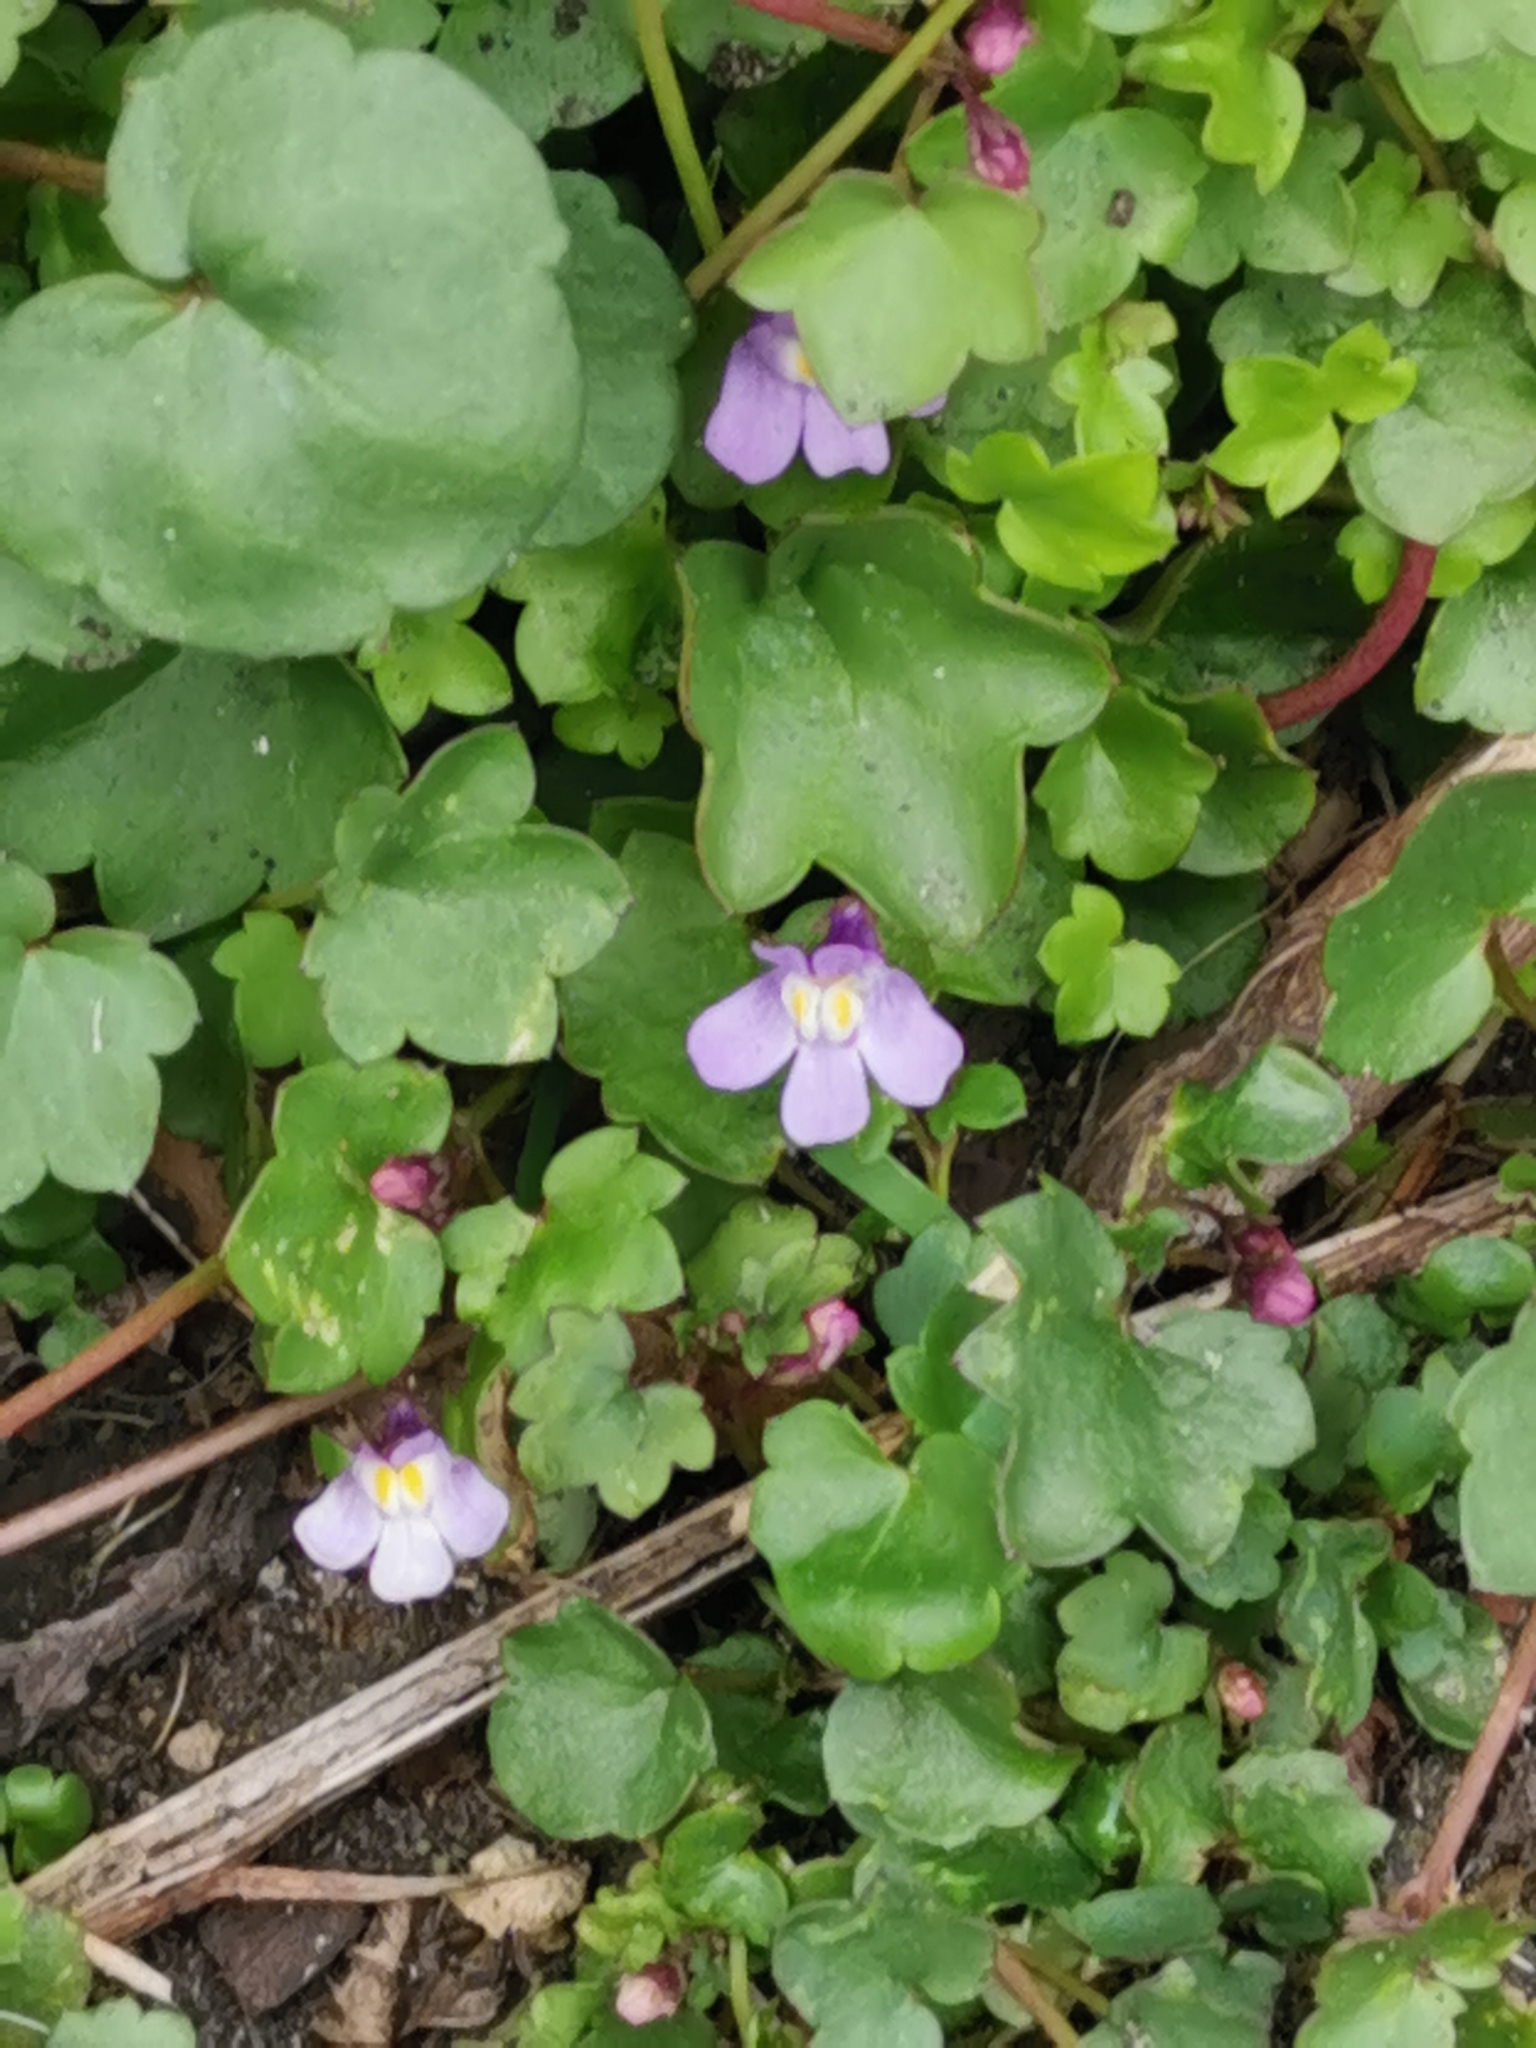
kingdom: Plantae
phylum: Tracheophyta
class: Magnoliopsida
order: Lamiales
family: Plantaginaceae
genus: Cymbalaria
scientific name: Cymbalaria muralis
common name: Ivy-leaved toadflax
